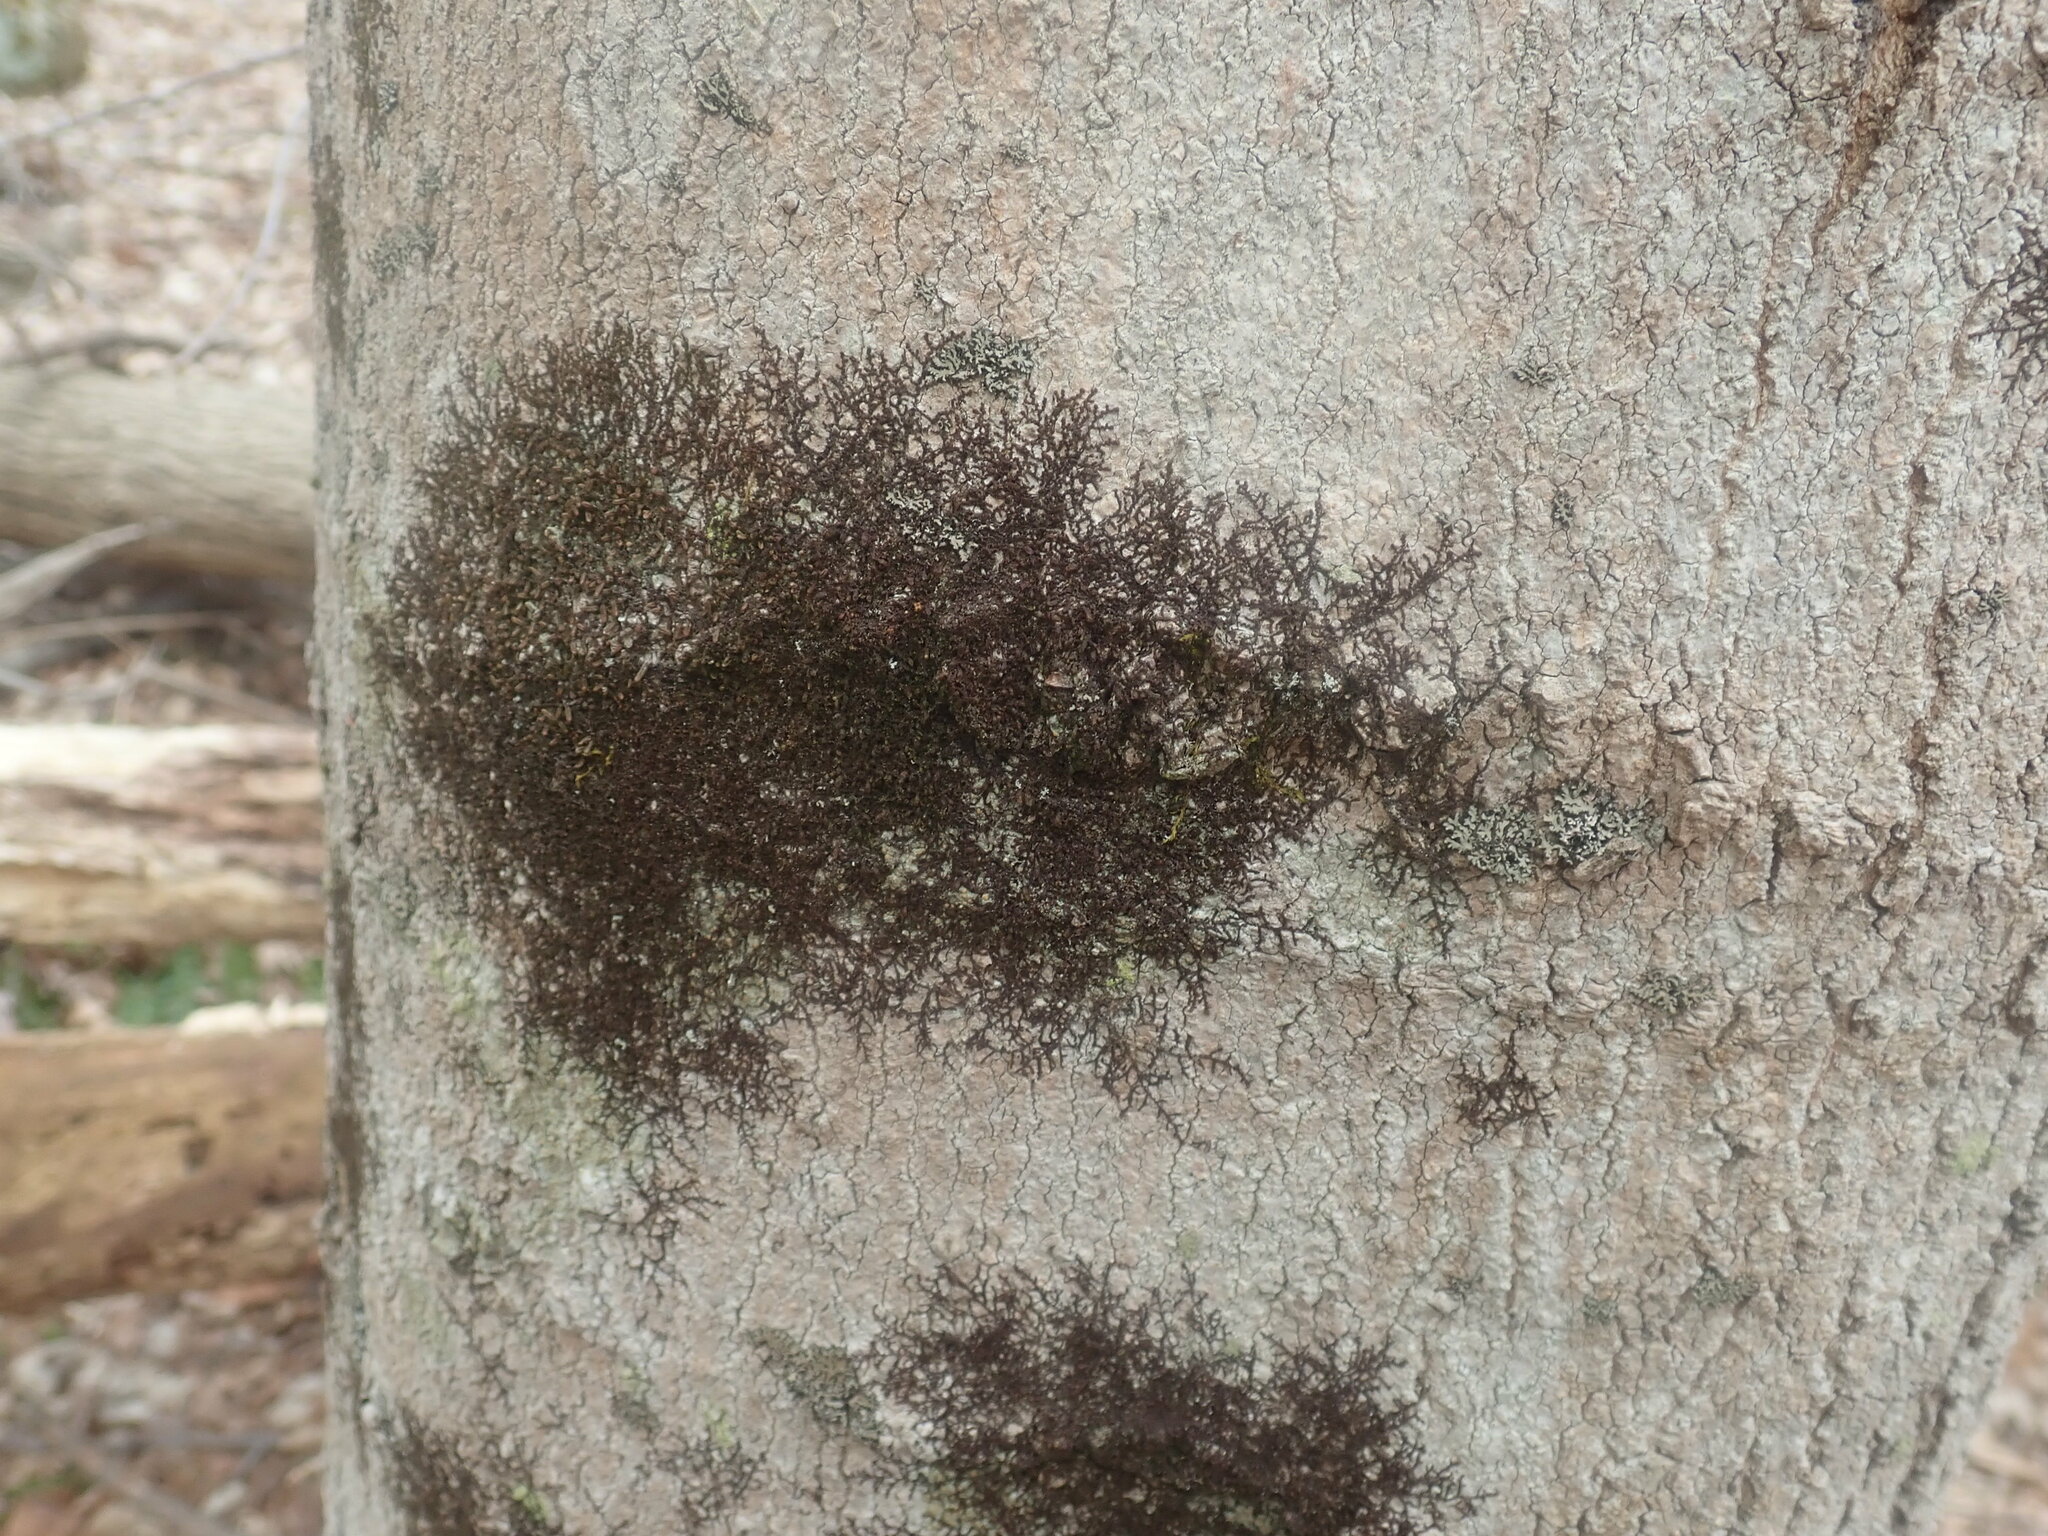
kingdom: Plantae
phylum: Marchantiophyta
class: Jungermanniopsida
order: Porellales
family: Frullaniaceae
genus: Frullania
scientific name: Frullania
